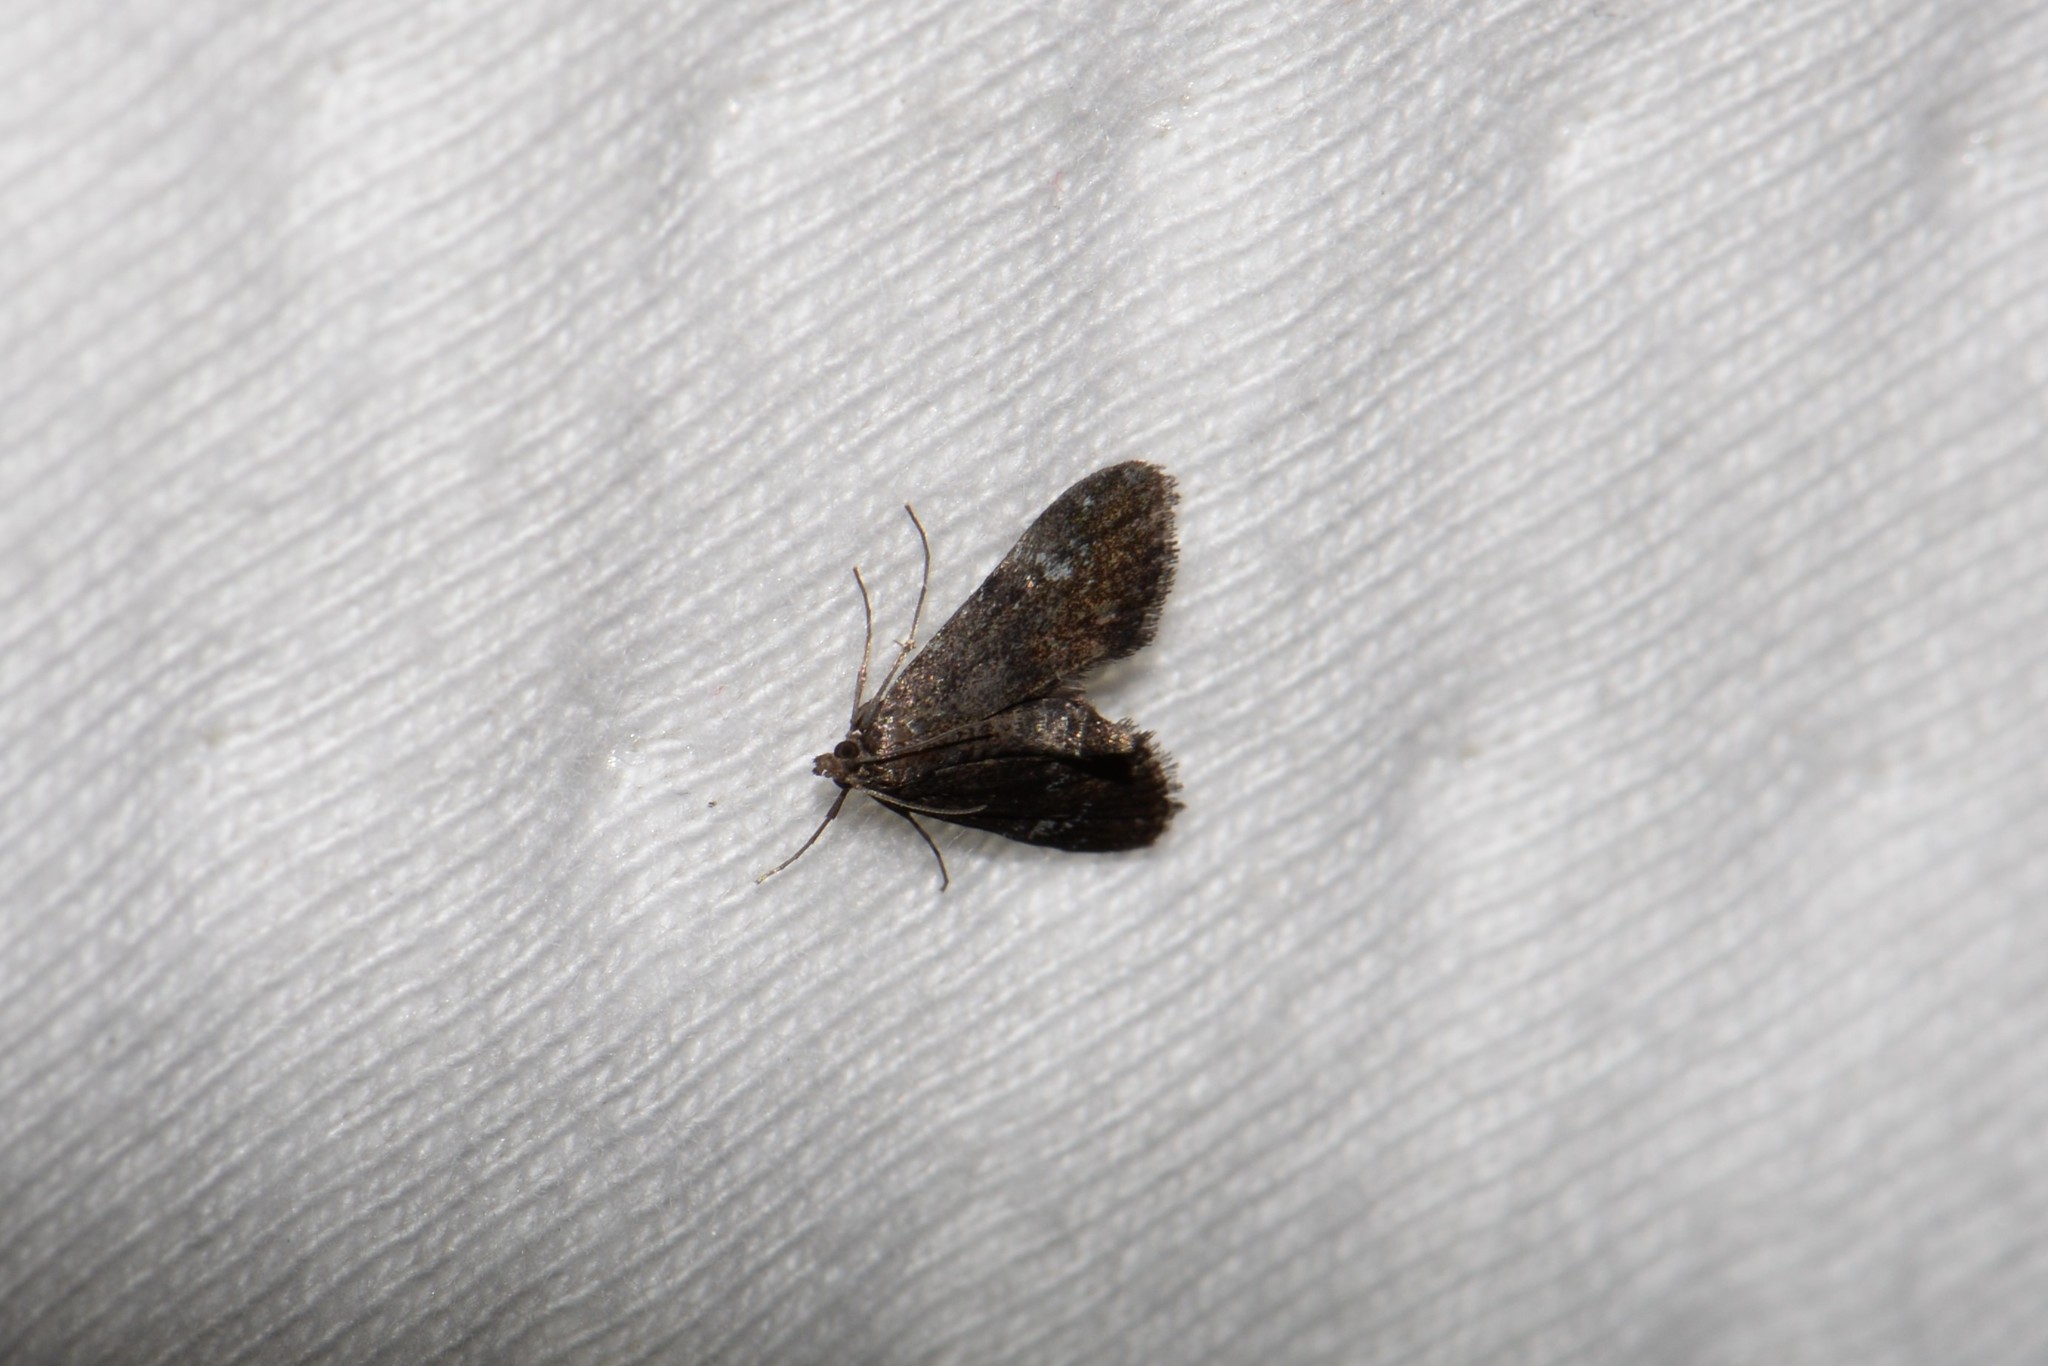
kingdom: Animalia
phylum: Arthropoda
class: Insecta
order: Lepidoptera
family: Crambidae
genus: Elophila
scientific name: Elophila tinealis
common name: Black duckweed moth
